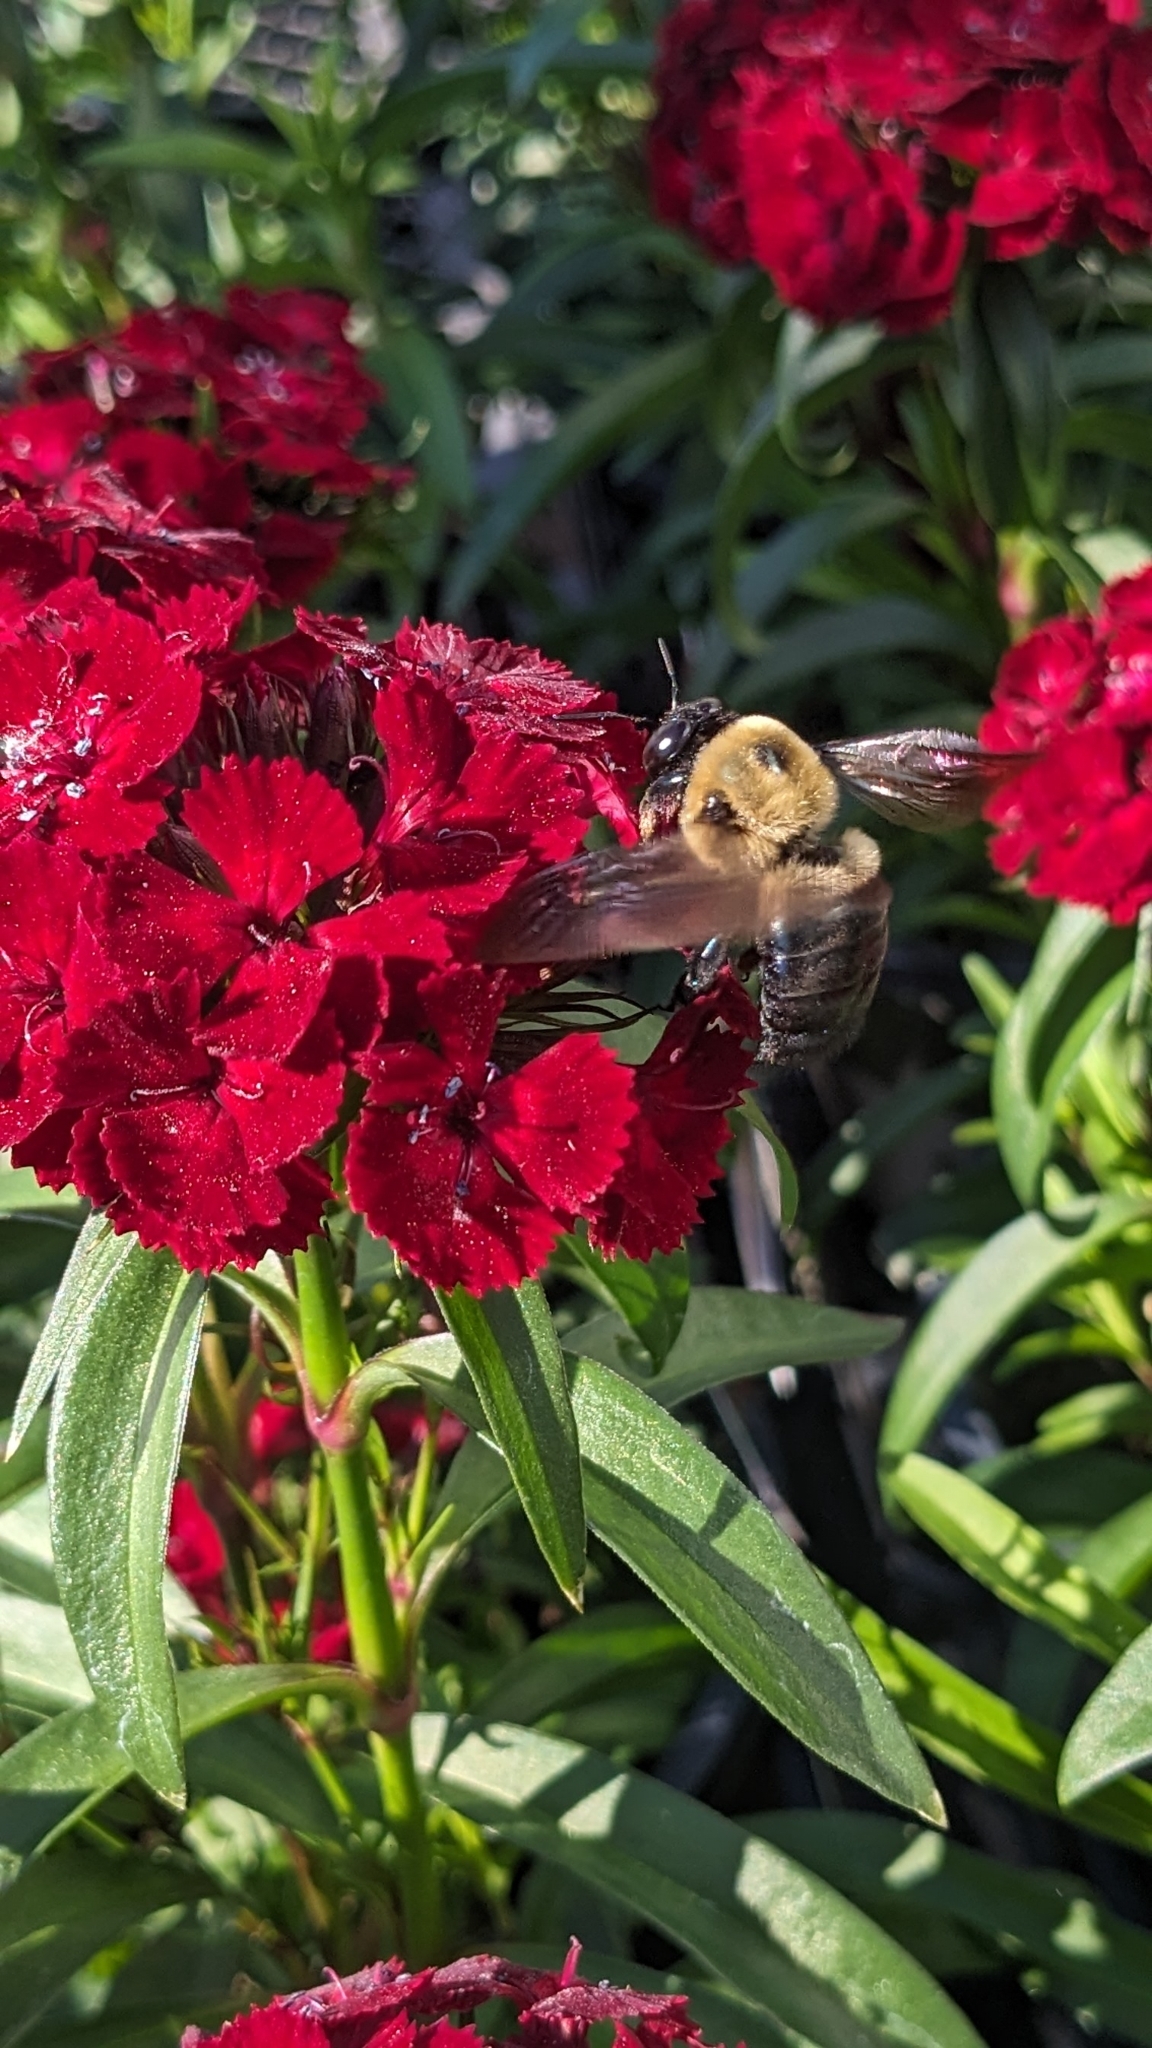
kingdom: Animalia
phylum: Arthropoda
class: Insecta
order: Hymenoptera
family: Apidae
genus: Xylocopa
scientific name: Xylocopa virginica
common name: Carpenter bee
